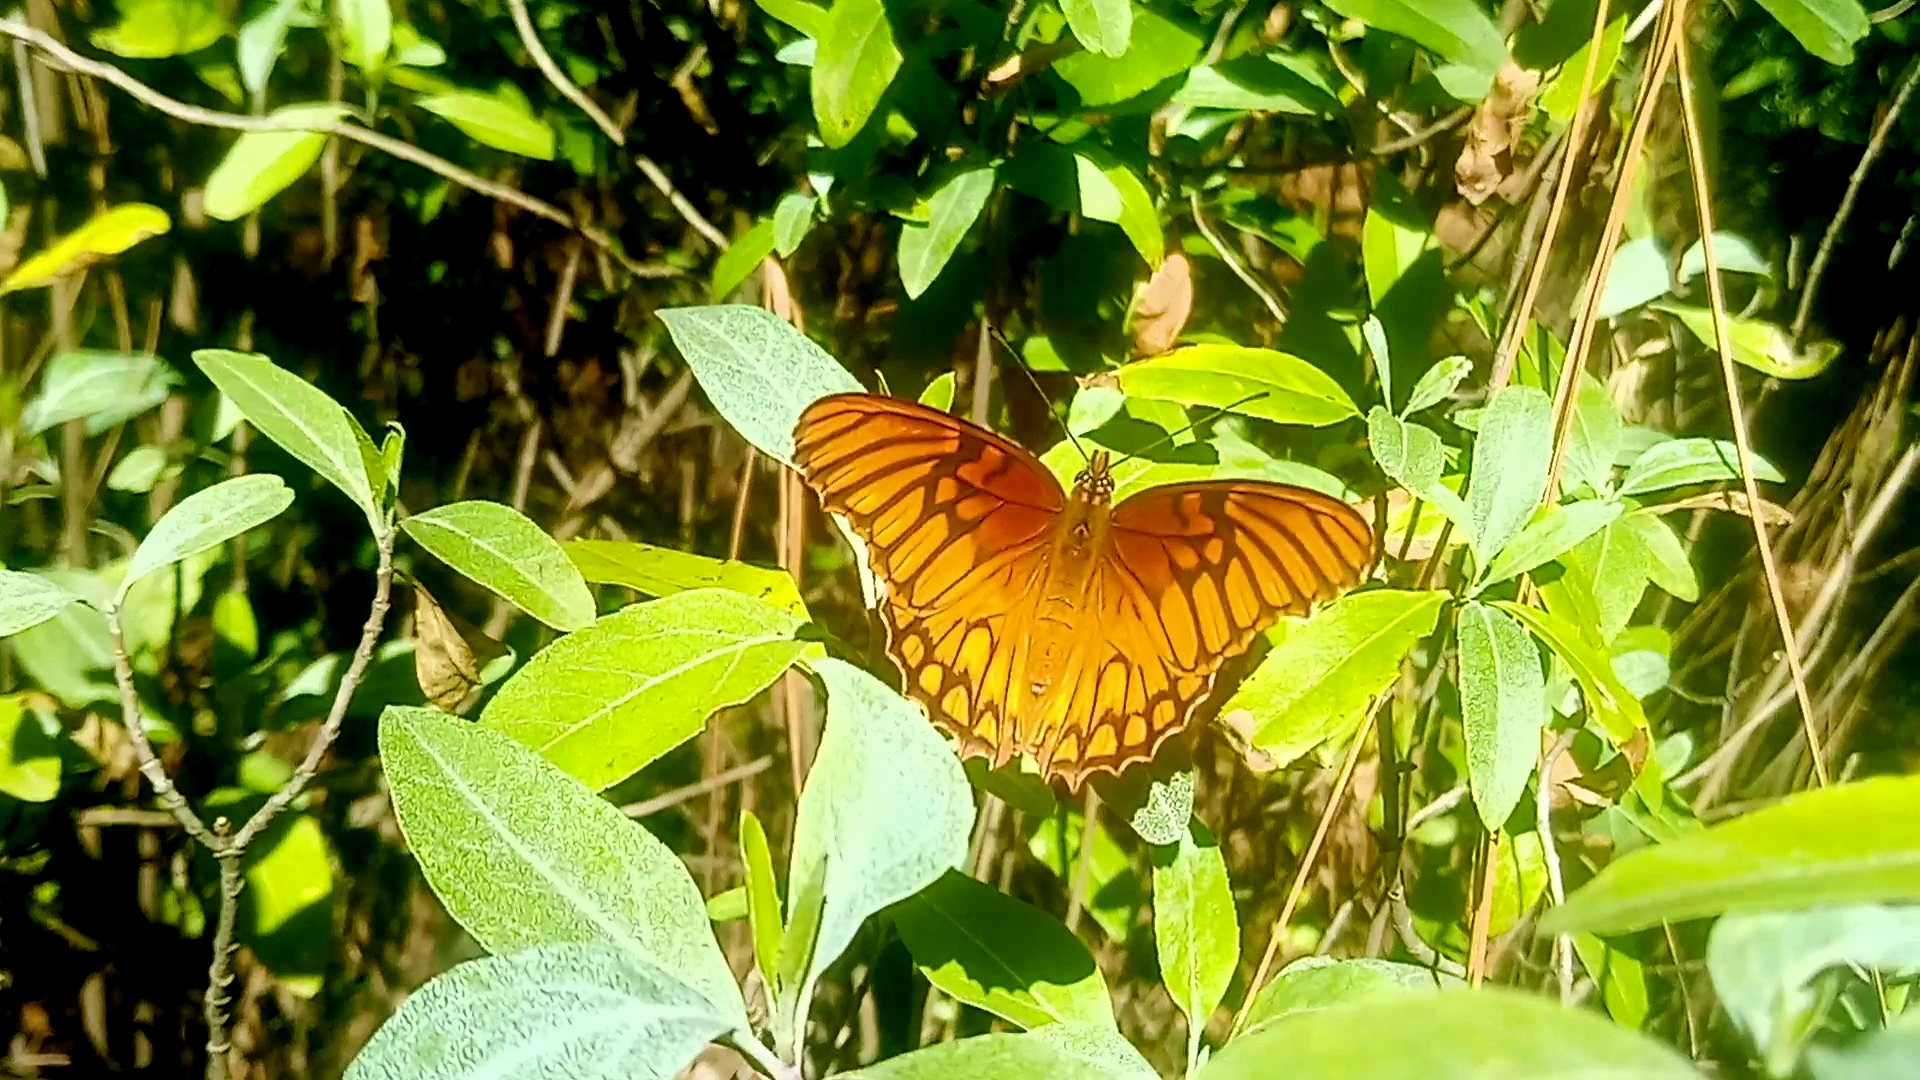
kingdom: Animalia
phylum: Arthropoda
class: Insecta
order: Lepidoptera
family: Nymphalidae
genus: Dione
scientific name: Dione moneta
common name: Mexican silverspot
